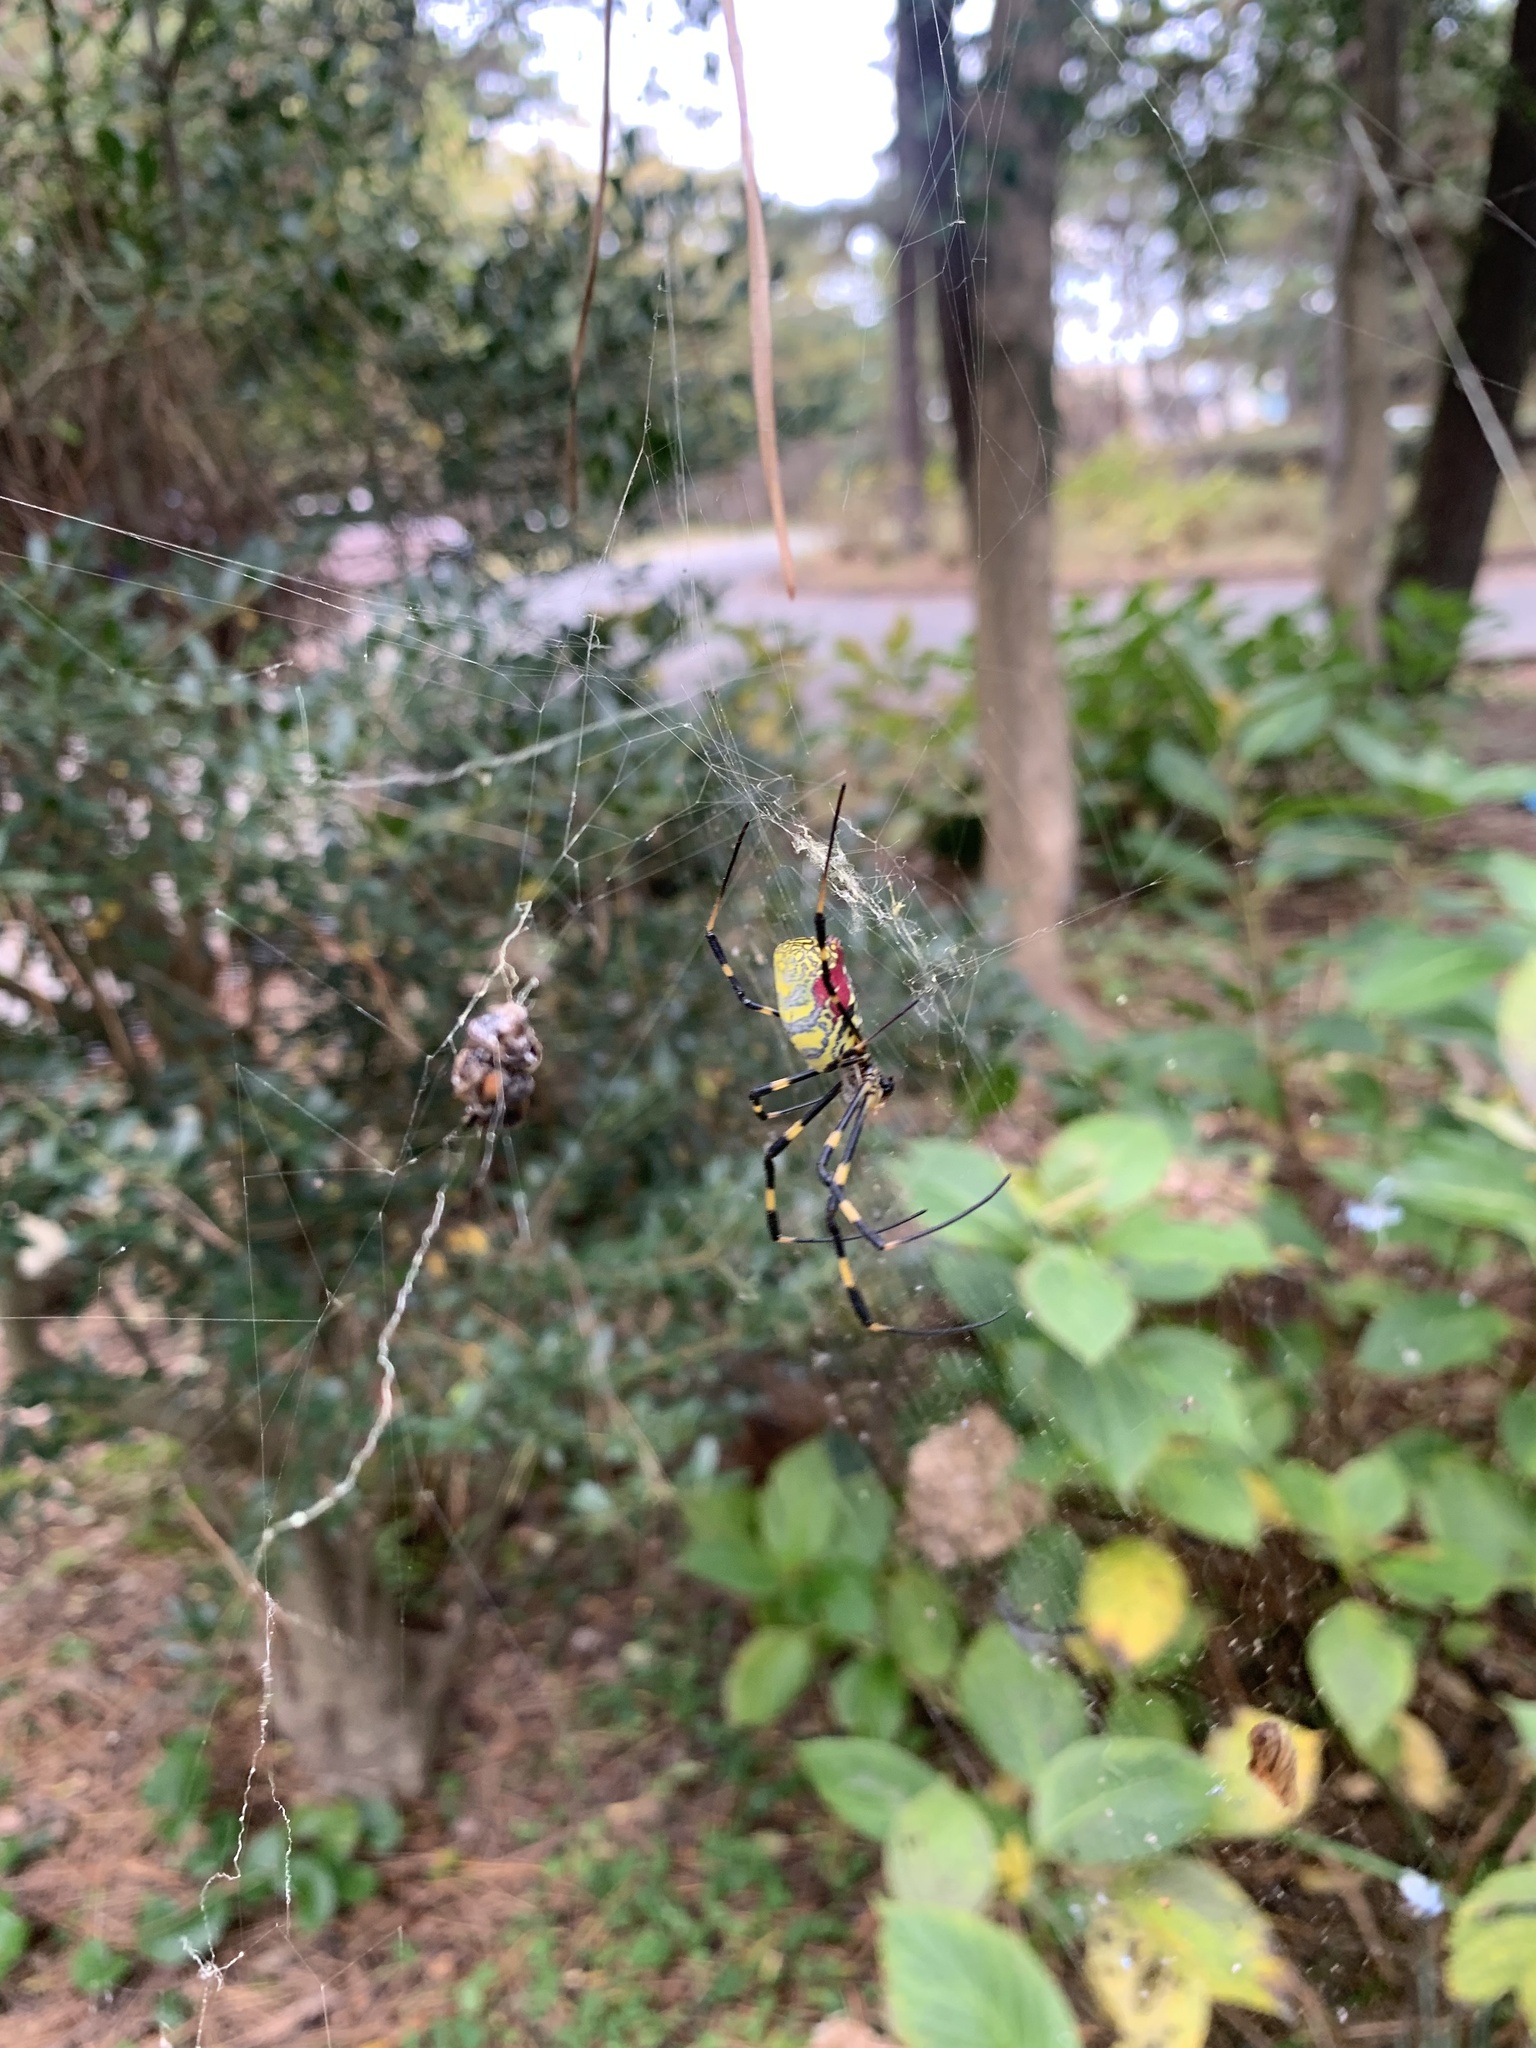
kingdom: Animalia
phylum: Arthropoda
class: Arachnida
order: Araneae
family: Araneidae
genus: Trichonephila
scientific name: Trichonephila clavata
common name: Jorō spider
